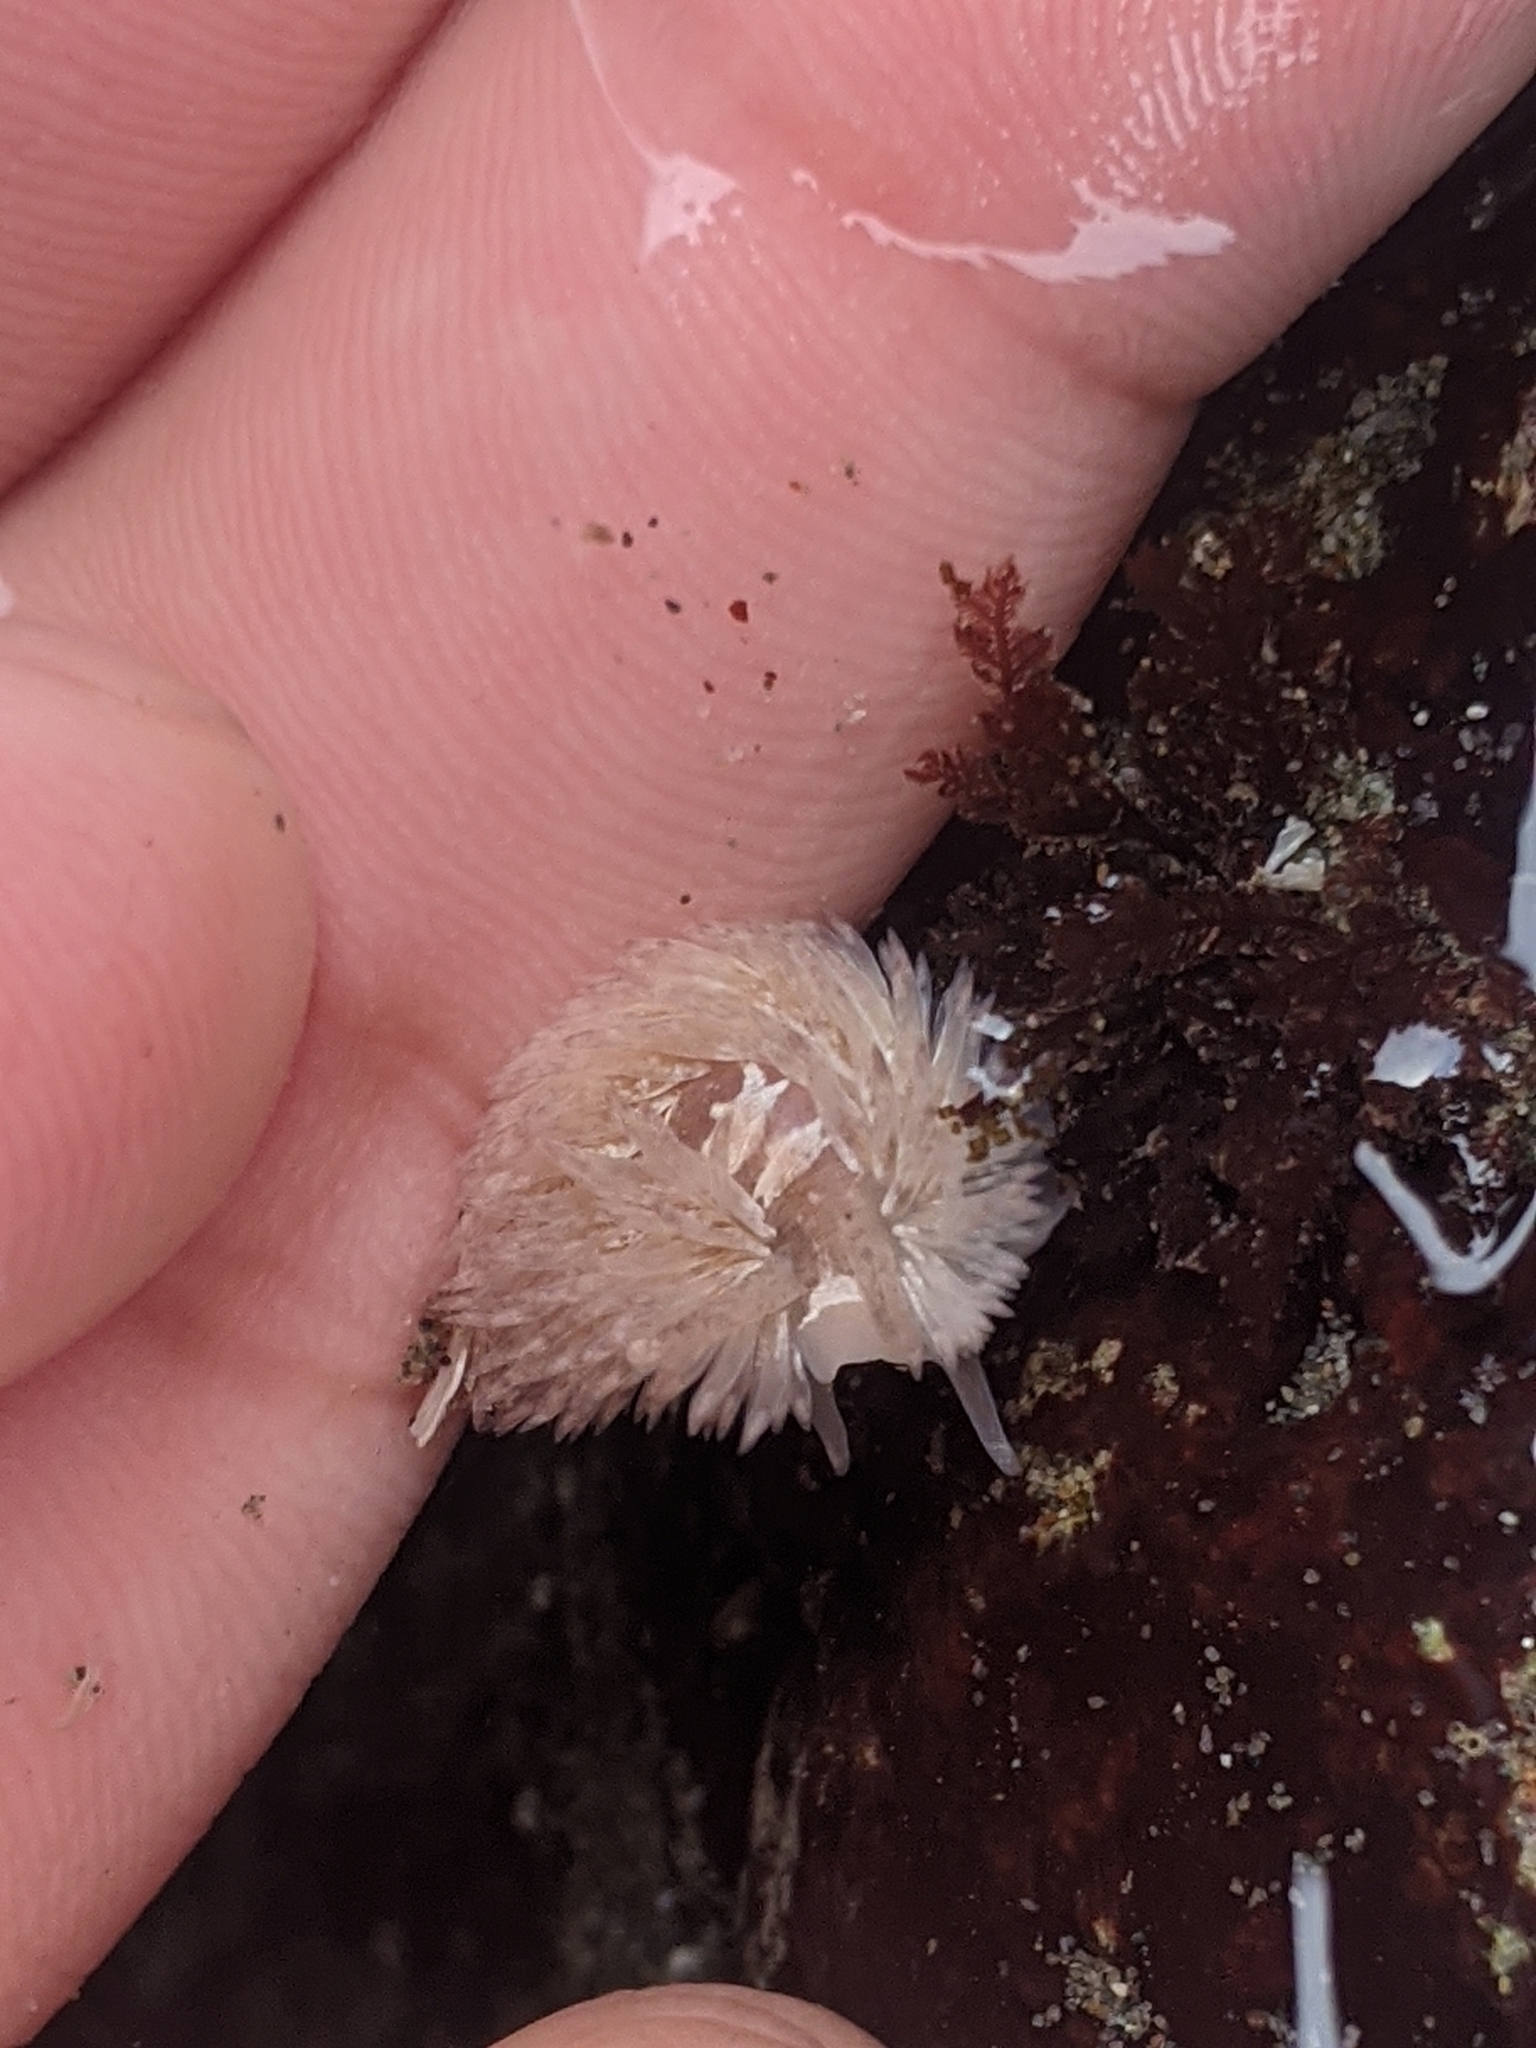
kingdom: Animalia
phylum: Mollusca
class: Gastropoda
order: Nudibranchia
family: Aeolidiidae
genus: Aeolidia
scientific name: Aeolidia loui
